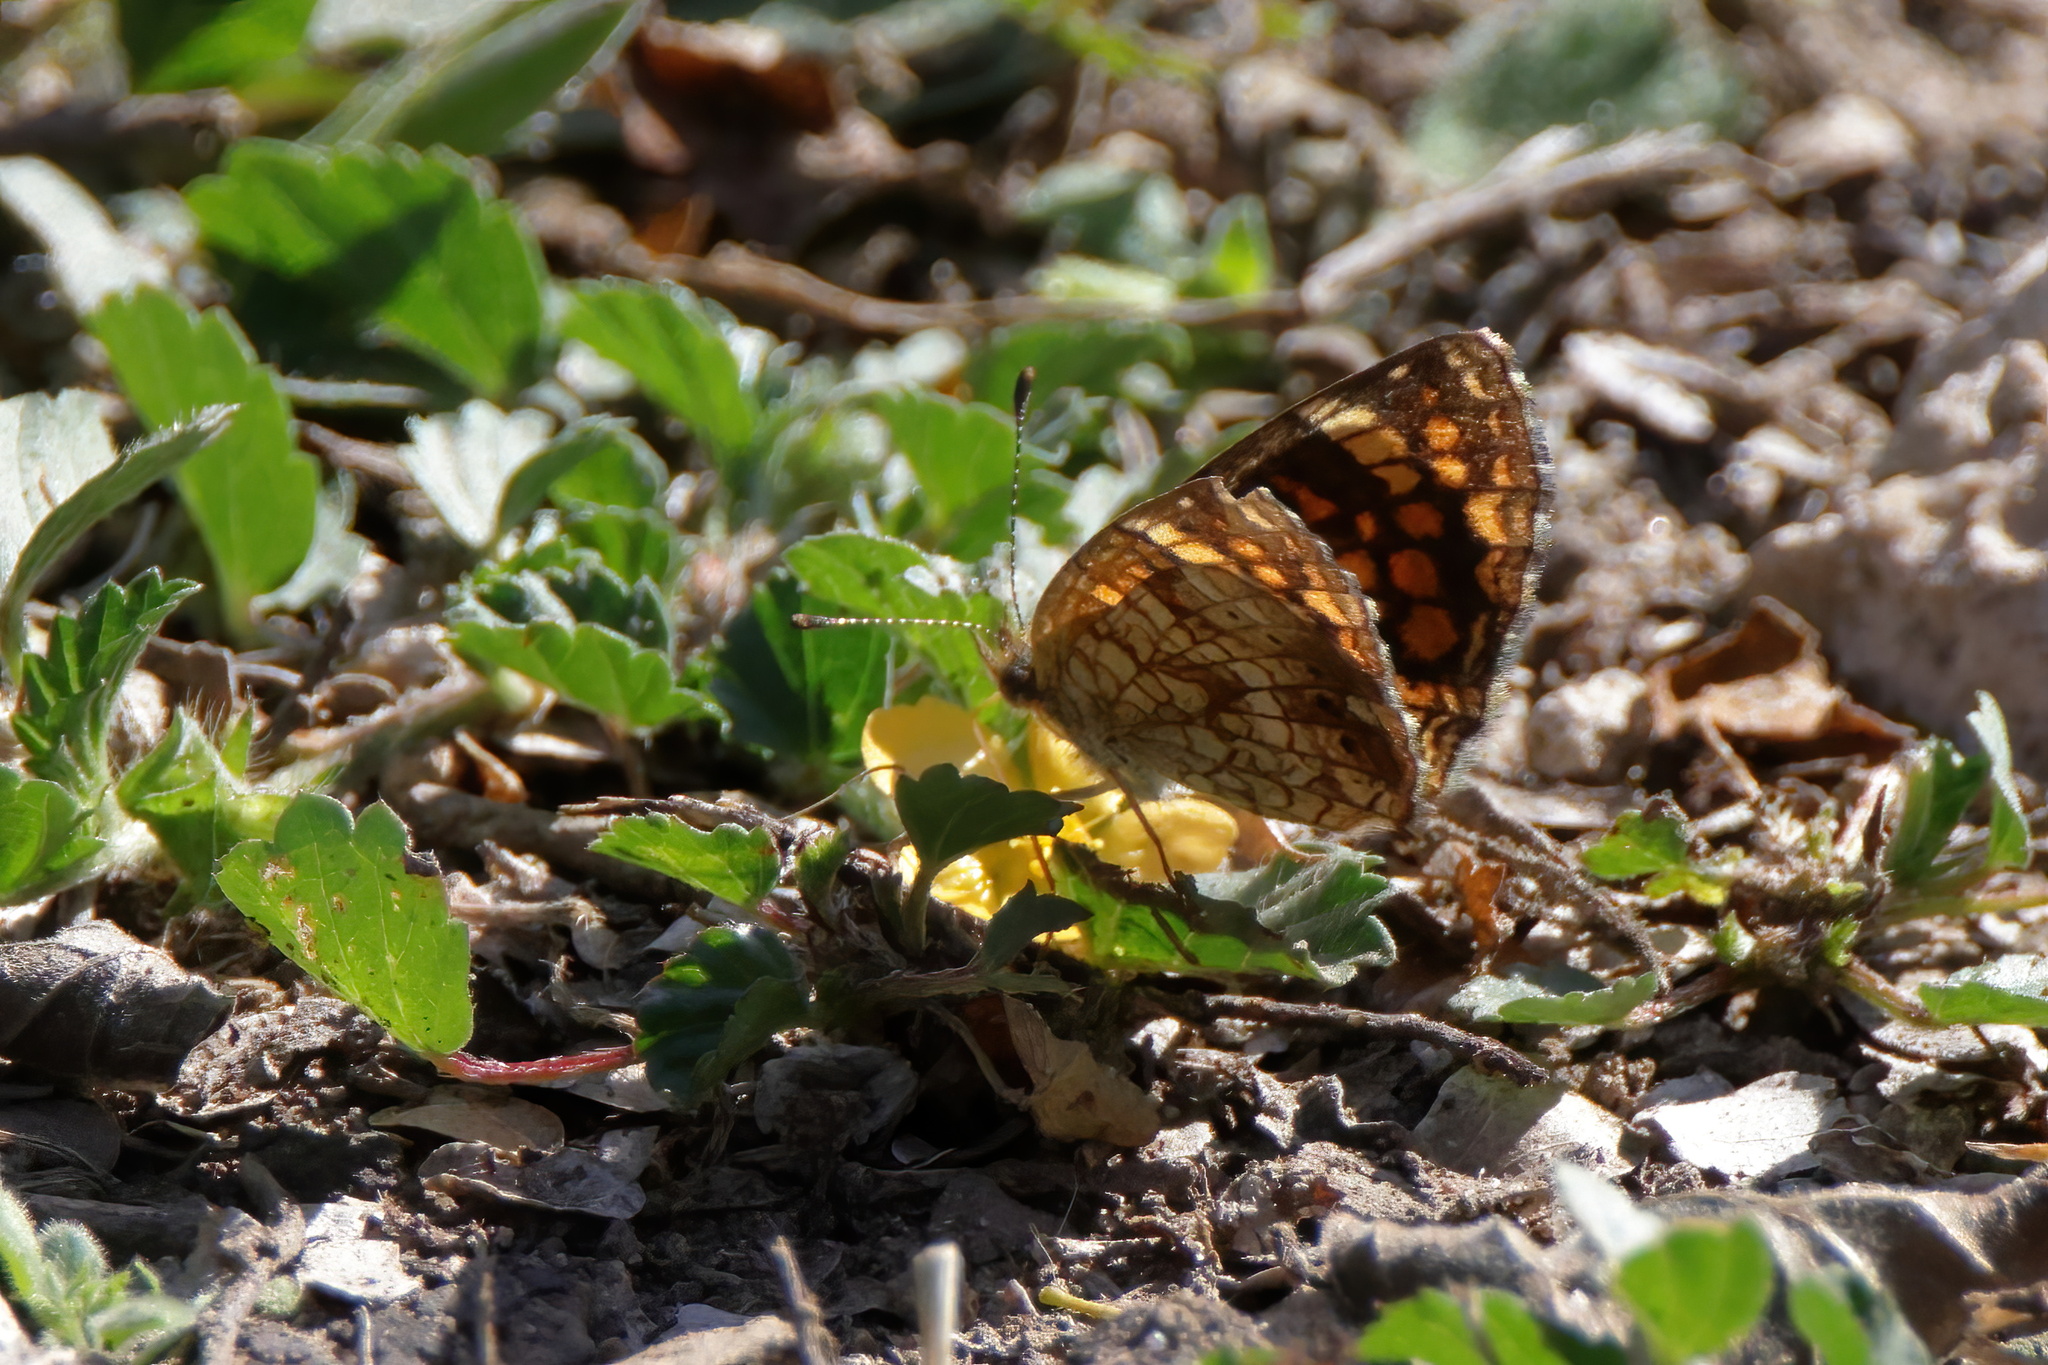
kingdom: Animalia
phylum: Arthropoda
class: Insecta
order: Lepidoptera
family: Nymphalidae
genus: Phyciodes
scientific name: Phyciodes vesta
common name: Vesta crescent
